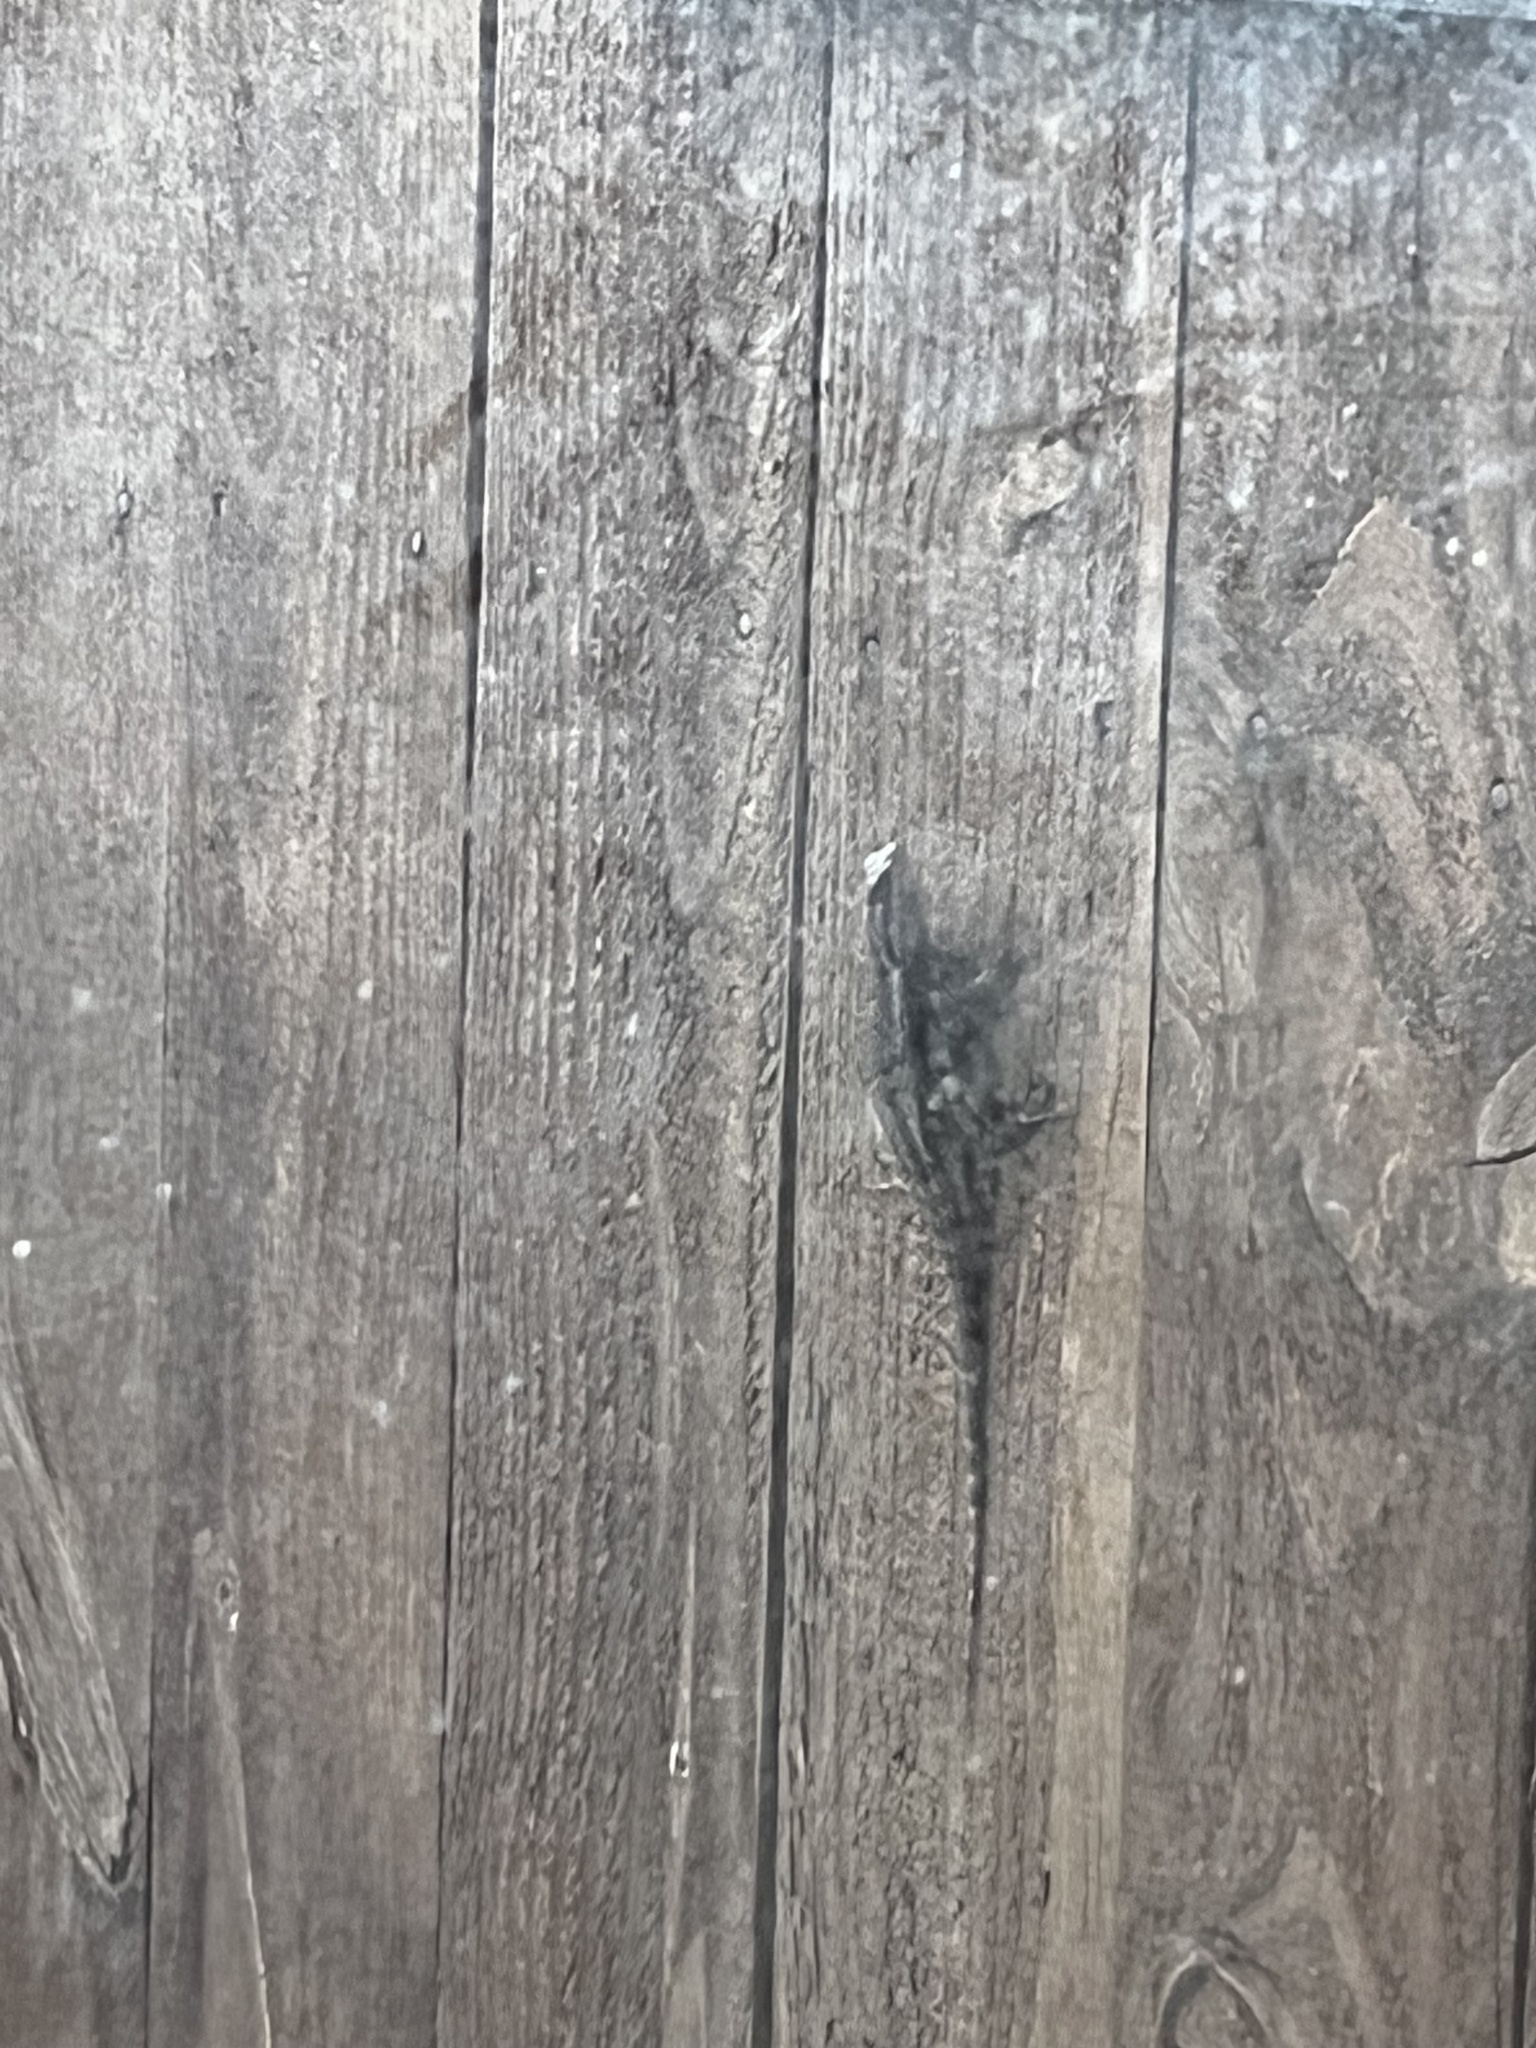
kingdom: Animalia
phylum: Chordata
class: Squamata
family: Phrynosomatidae
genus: Sceloporus
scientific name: Sceloporus olivaceus
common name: Texas spiny lizard
